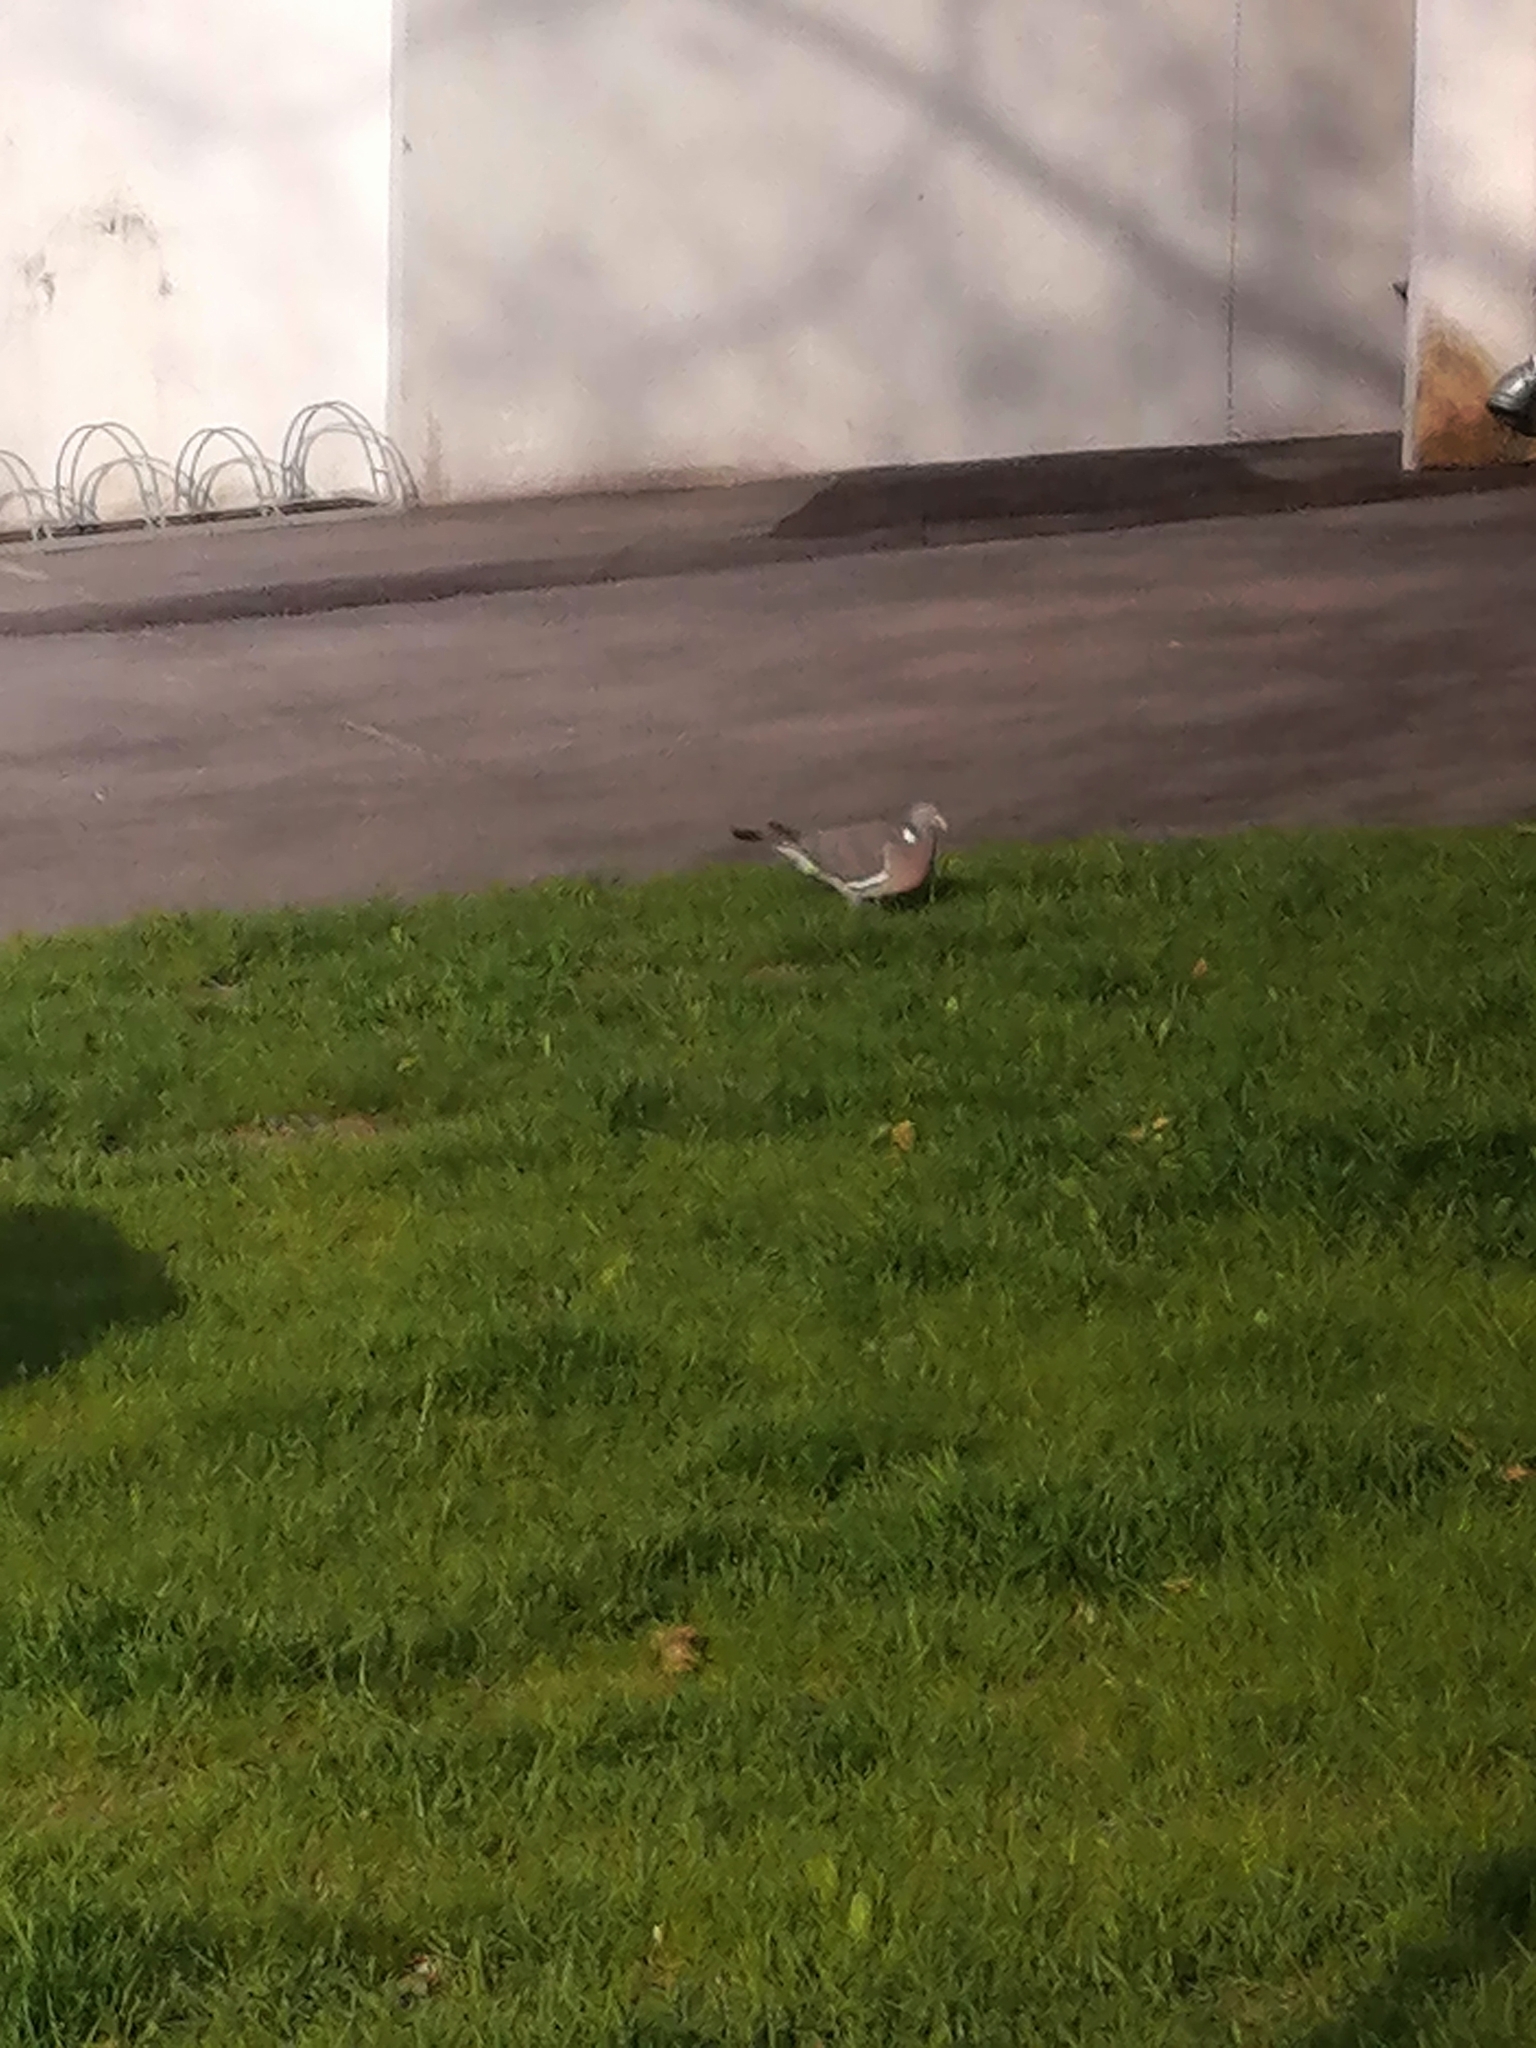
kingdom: Animalia
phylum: Chordata
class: Aves
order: Columbiformes
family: Columbidae
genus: Columba
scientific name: Columba palumbus
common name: Common wood pigeon
